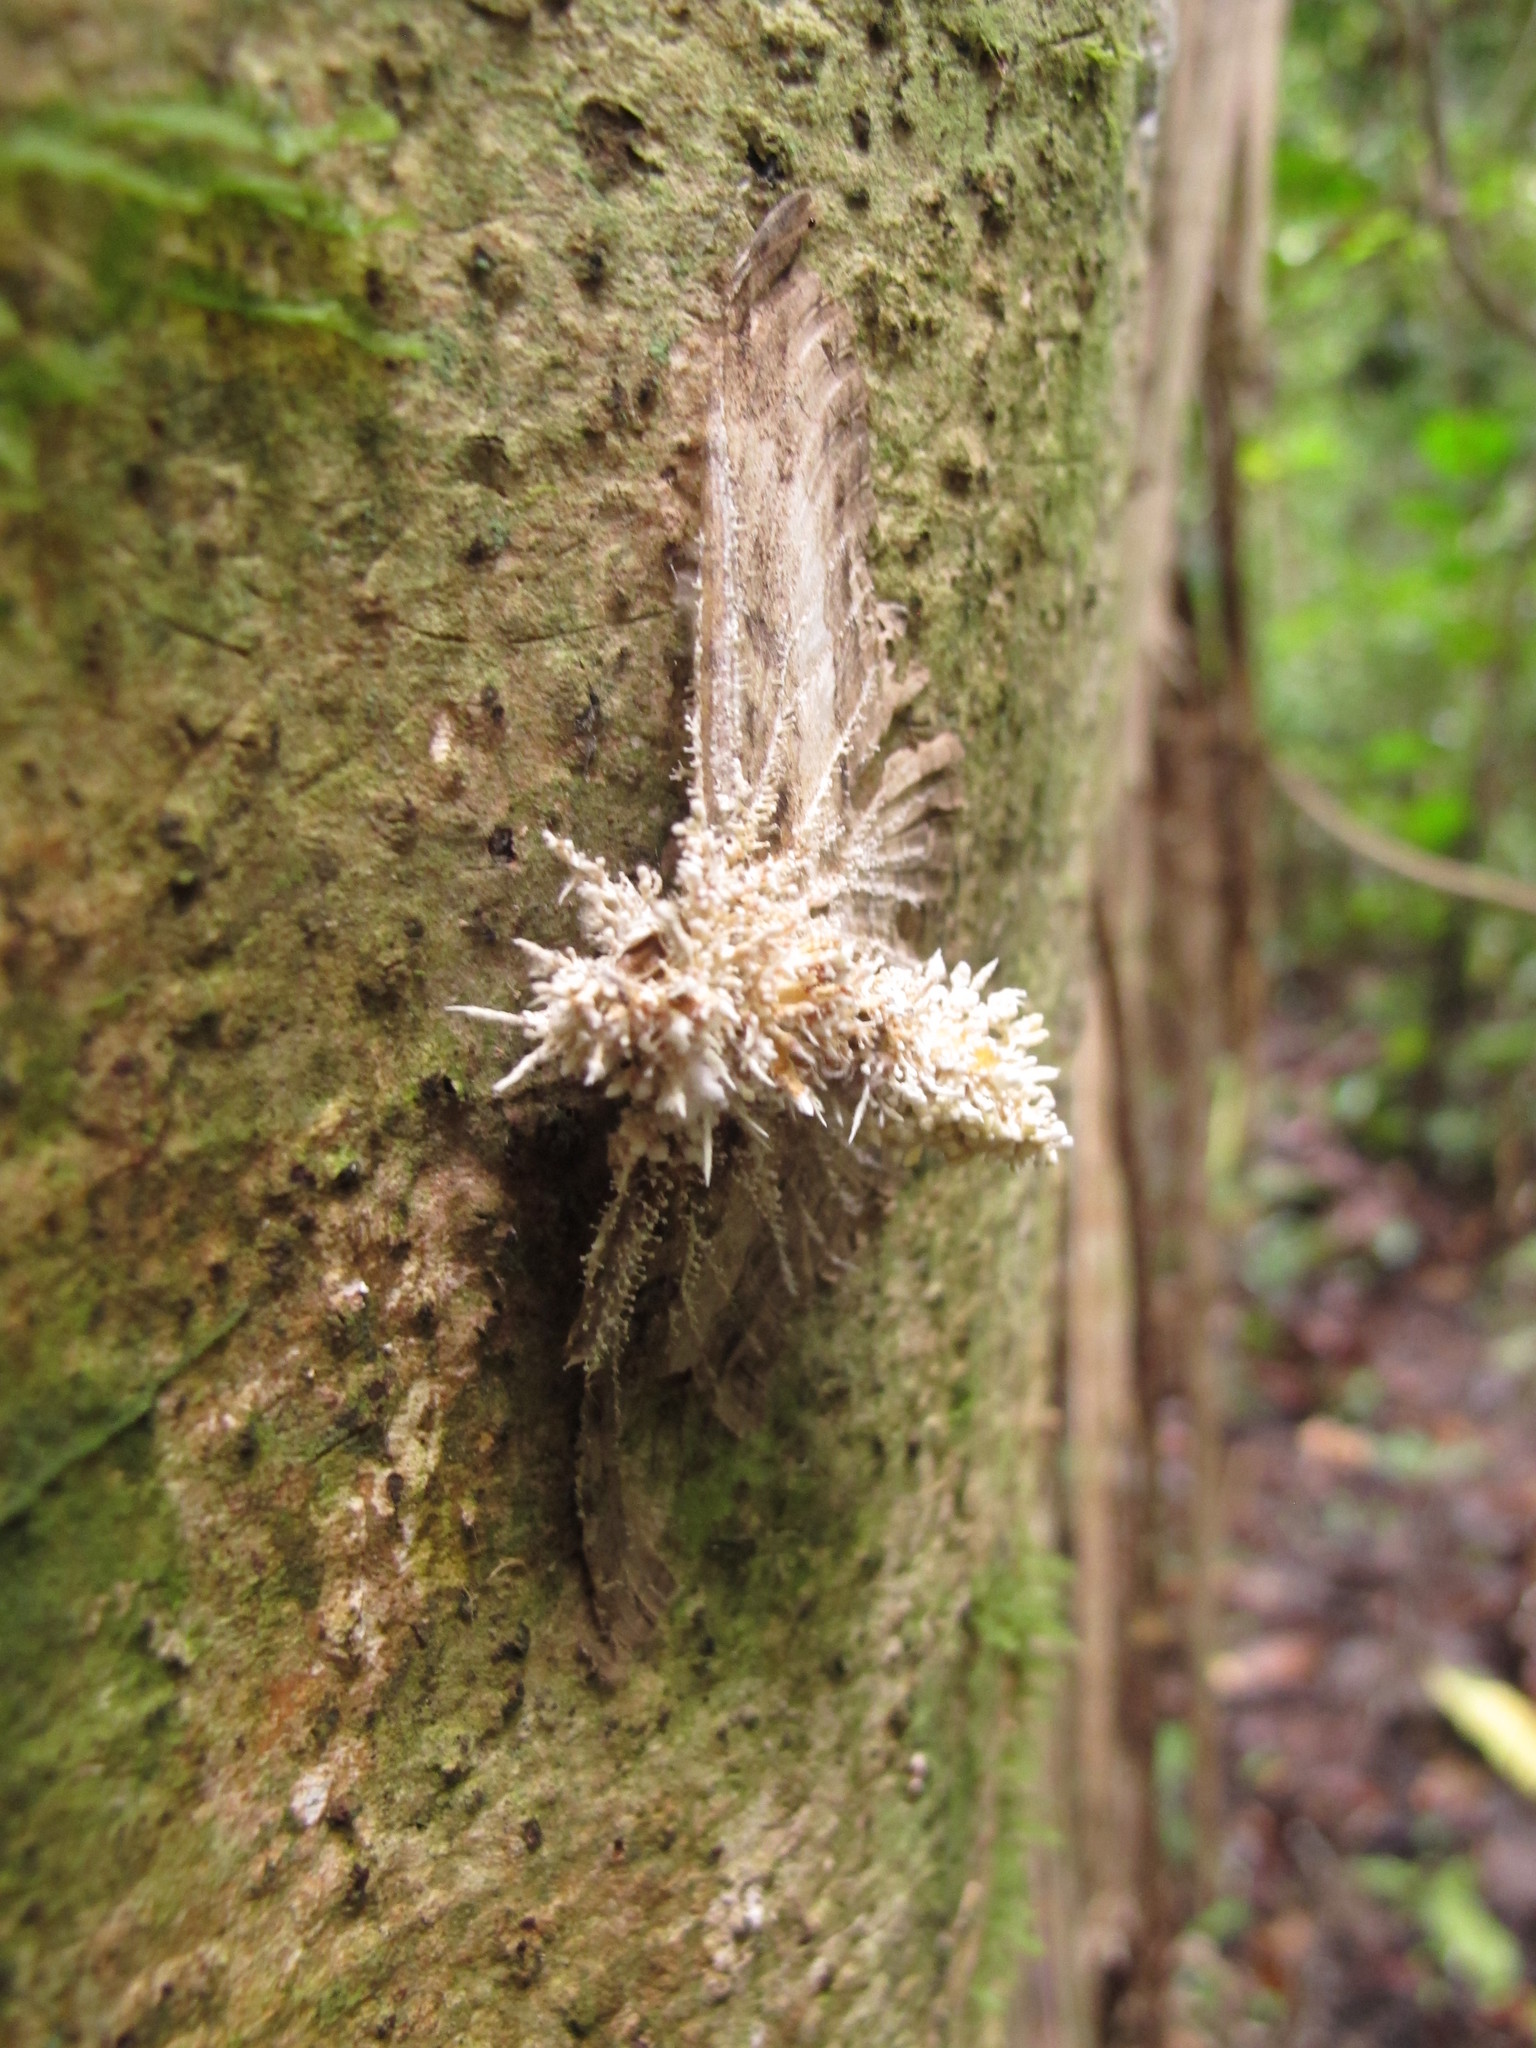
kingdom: Animalia
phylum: Arthropoda
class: Insecta
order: Lepidoptera
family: Erebidae
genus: Feigeria
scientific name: Feigeria buteo
